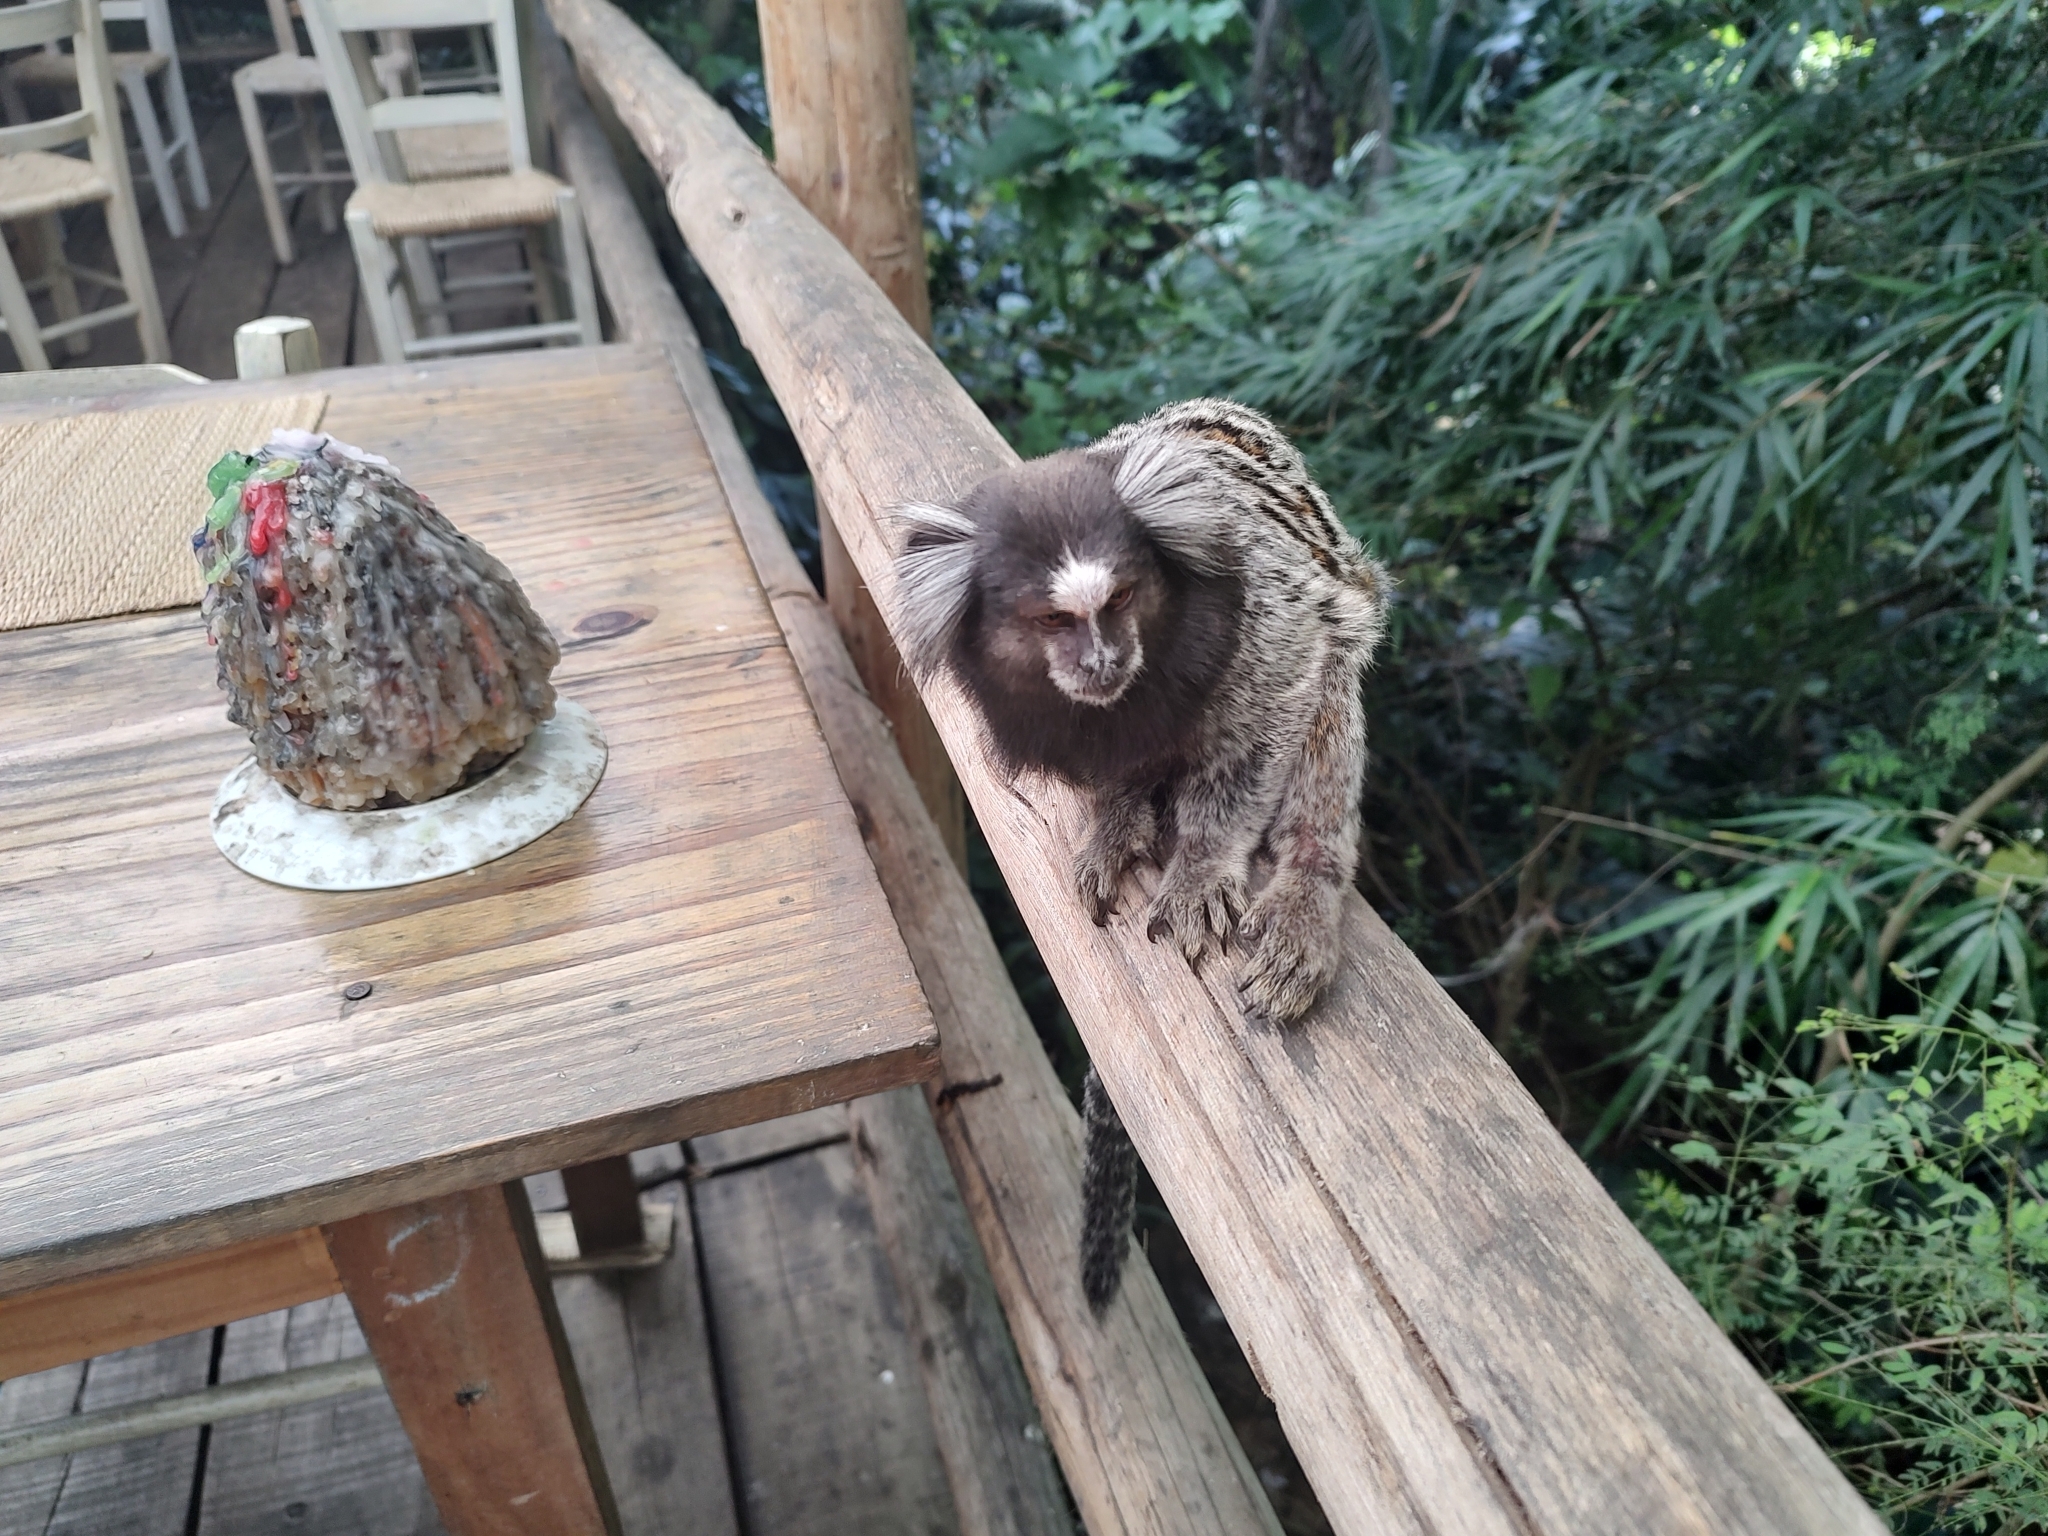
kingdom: Animalia
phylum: Chordata
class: Mammalia
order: Primates
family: Callitrichidae
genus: Callithrix
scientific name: Callithrix penicillata
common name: Black-tufted marmoset
